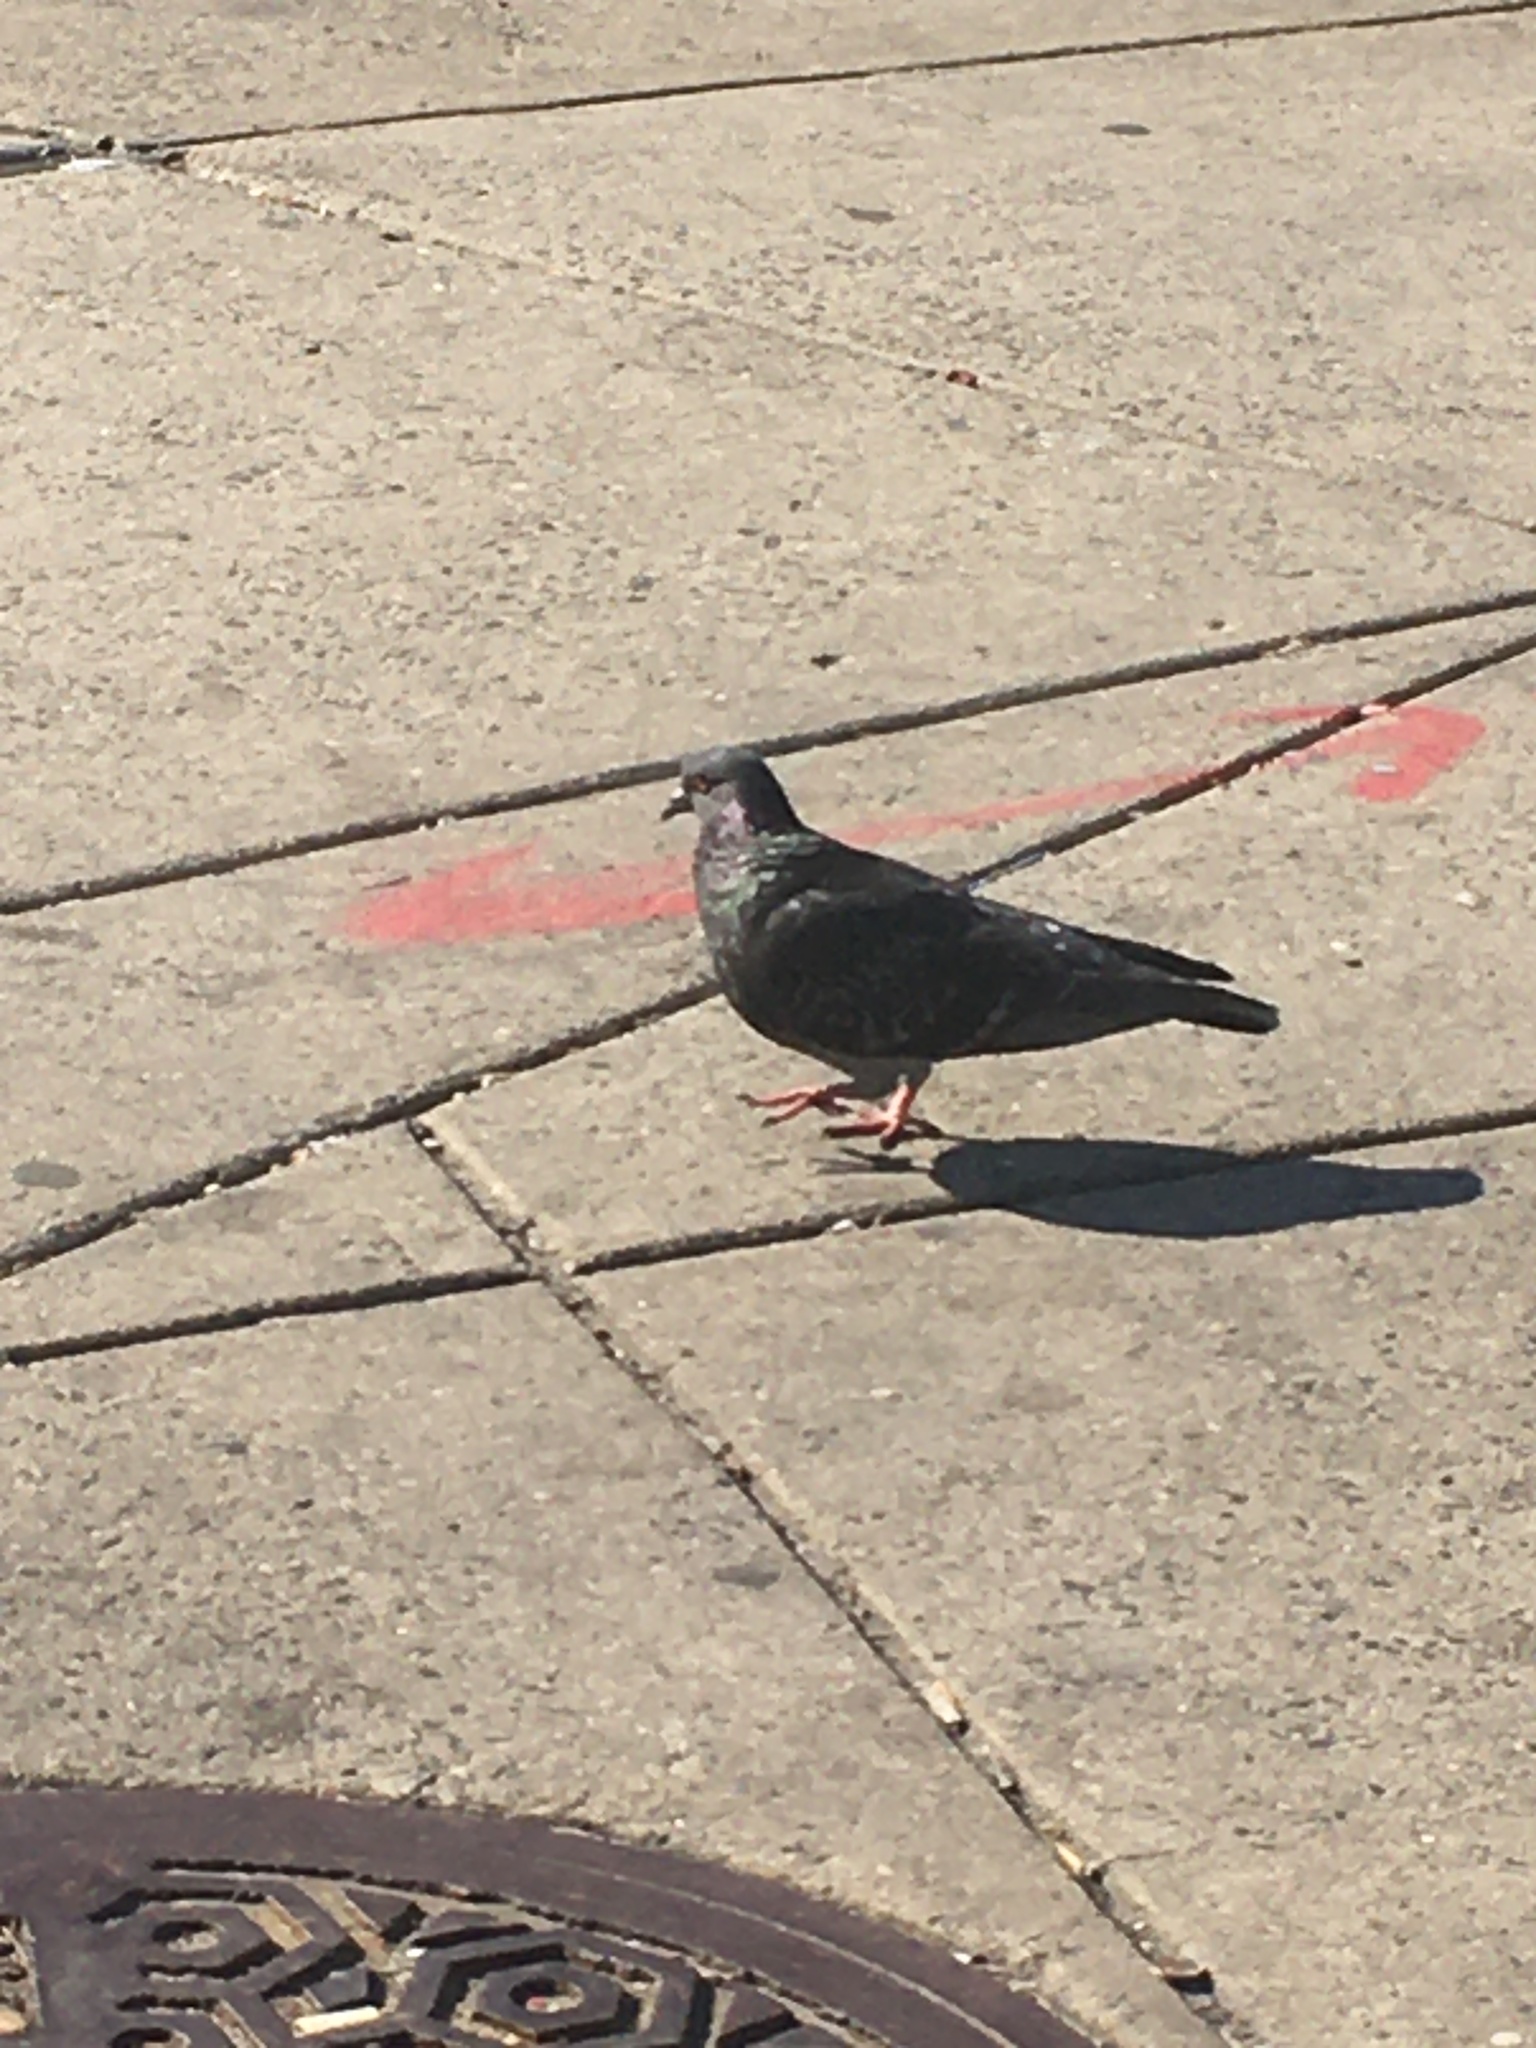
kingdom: Animalia
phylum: Chordata
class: Aves
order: Columbiformes
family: Columbidae
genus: Columba
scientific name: Columba livia
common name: Rock pigeon
